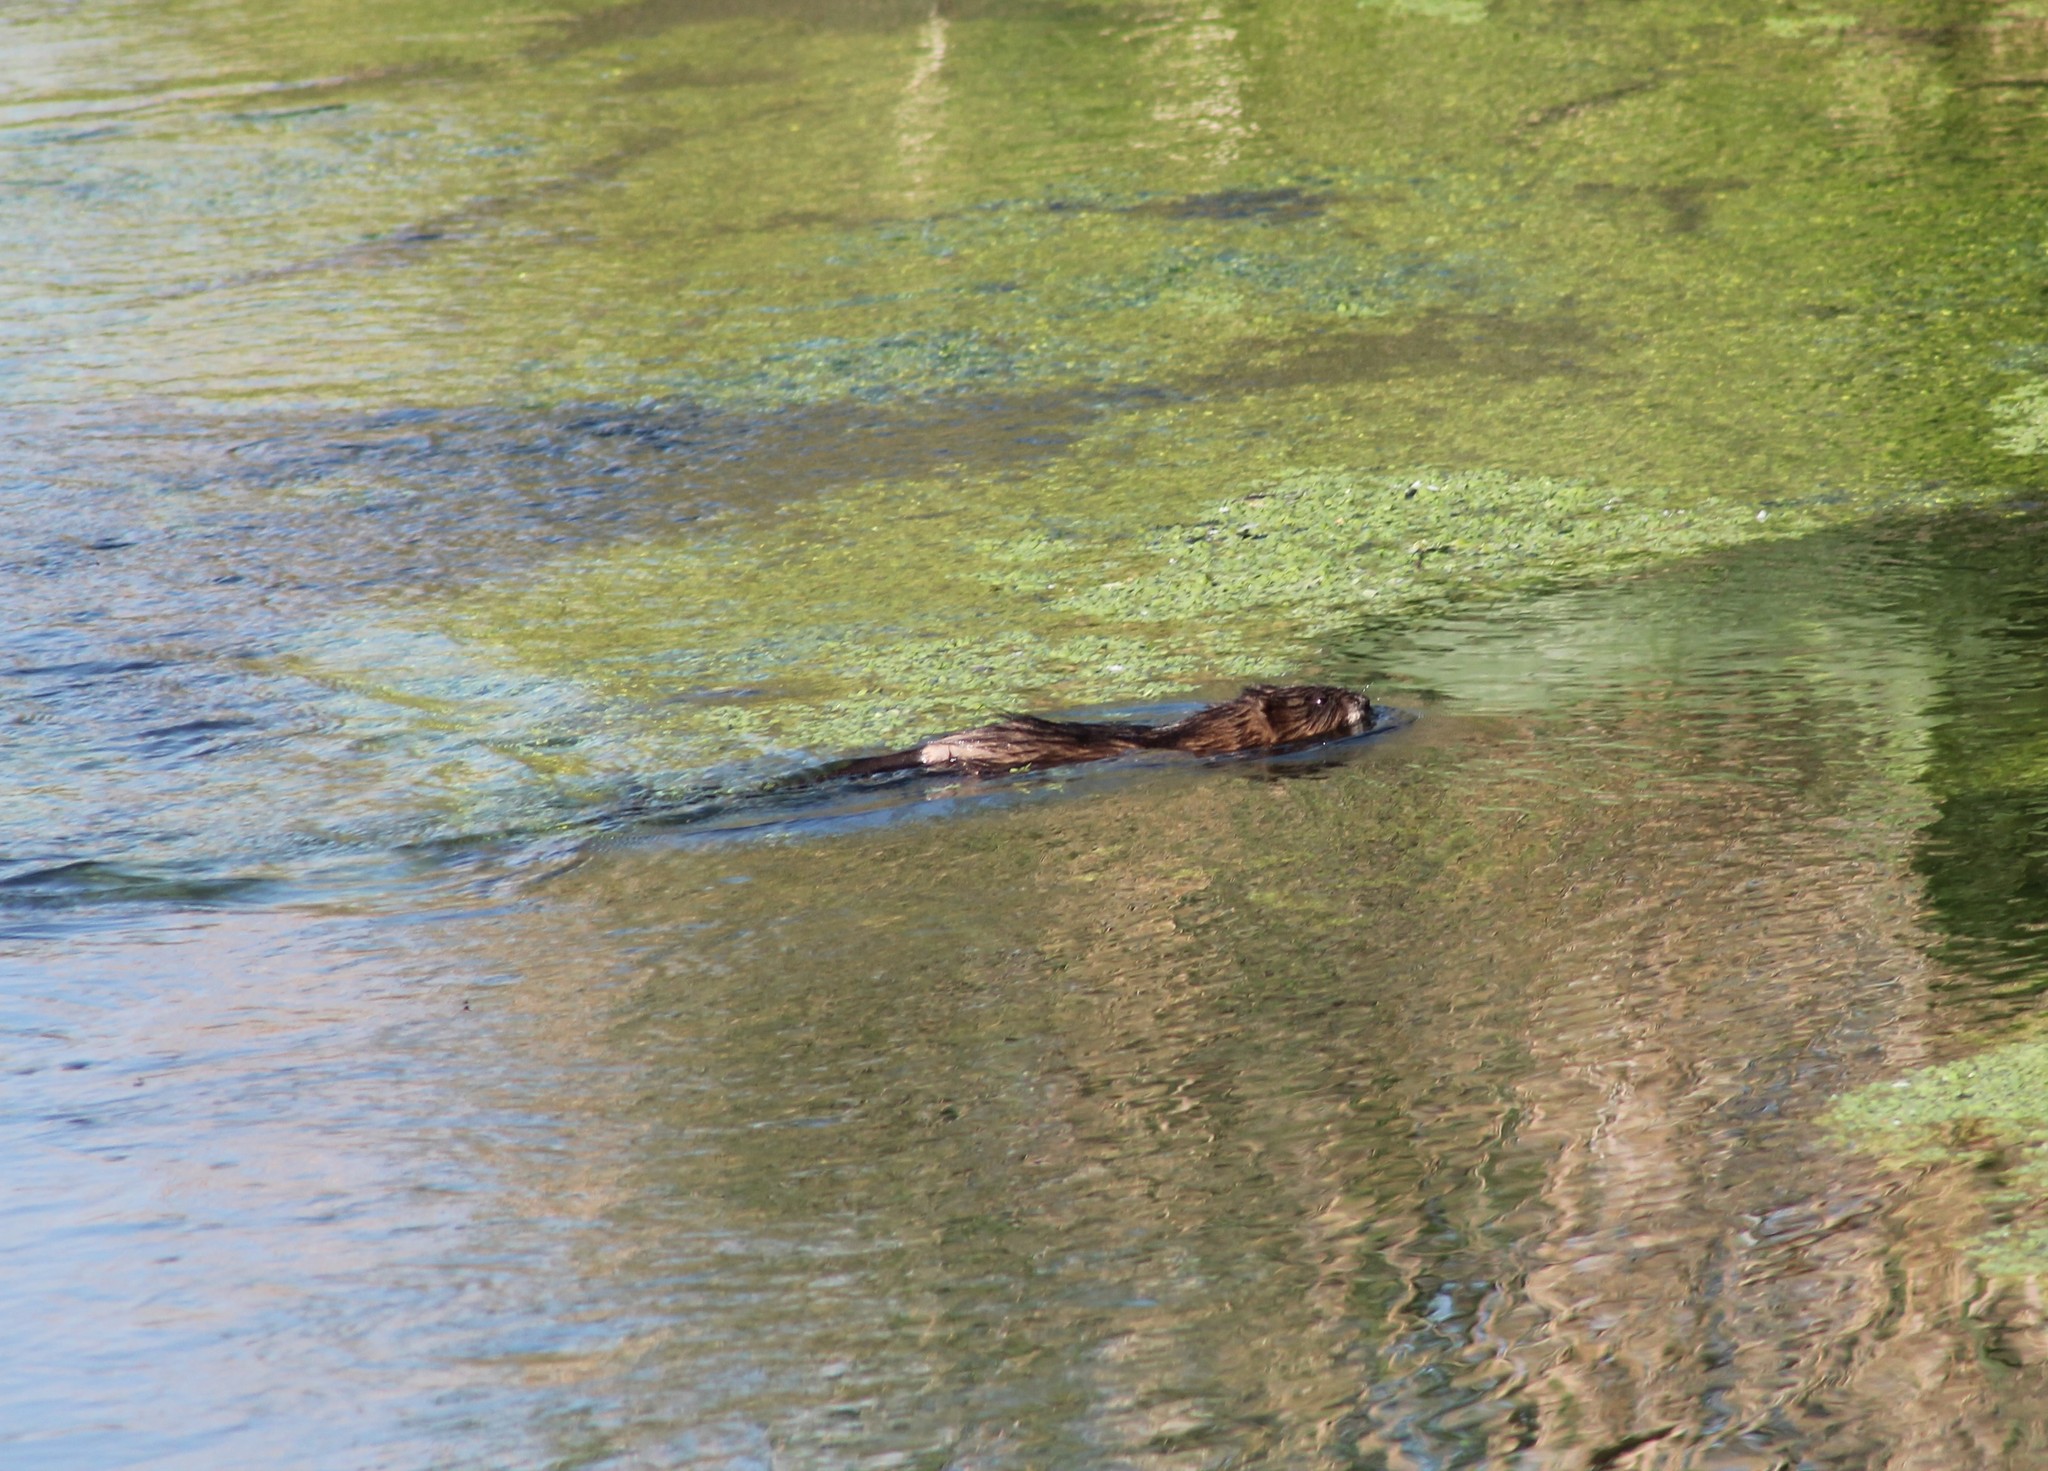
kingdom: Animalia
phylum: Chordata
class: Mammalia
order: Rodentia
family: Cricetidae
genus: Ondatra
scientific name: Ondatra zibethicus
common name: Muskrat
